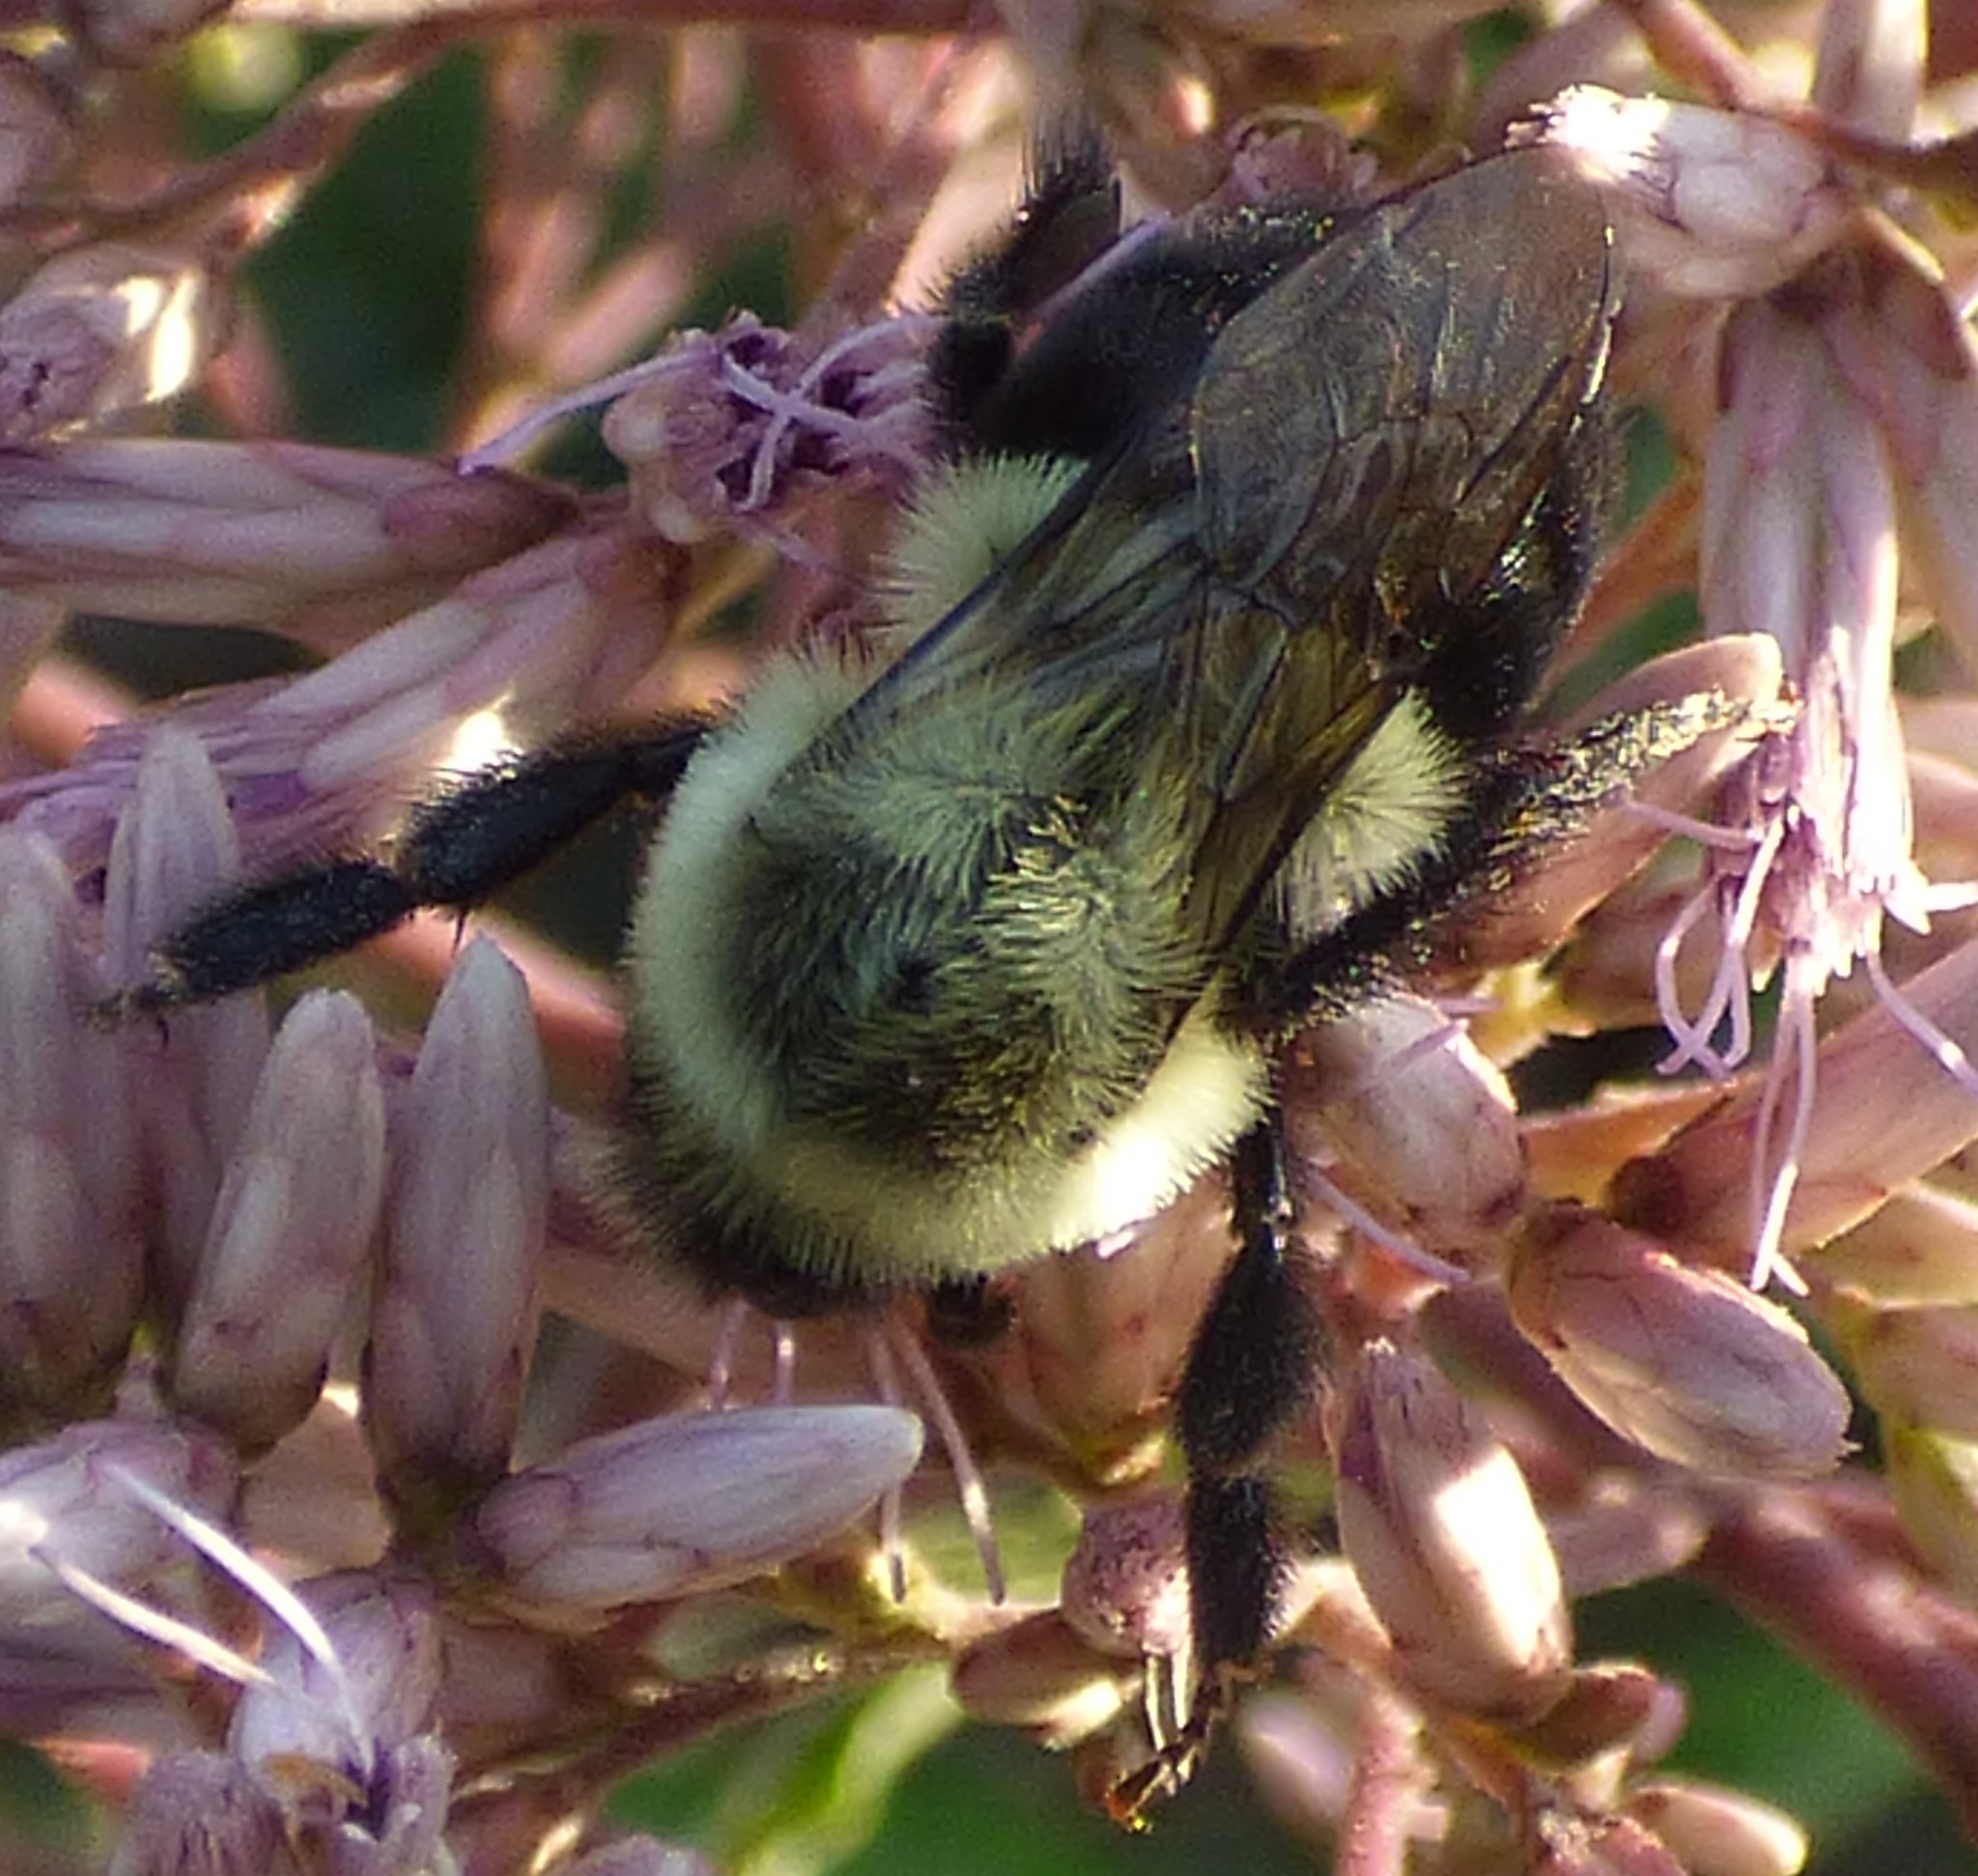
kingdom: Animalia
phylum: Arthropoda
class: Insecta
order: Hymenoptera
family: Apidae
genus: Bombus
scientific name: Bombus impatiens
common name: Common eastern bumble bee
